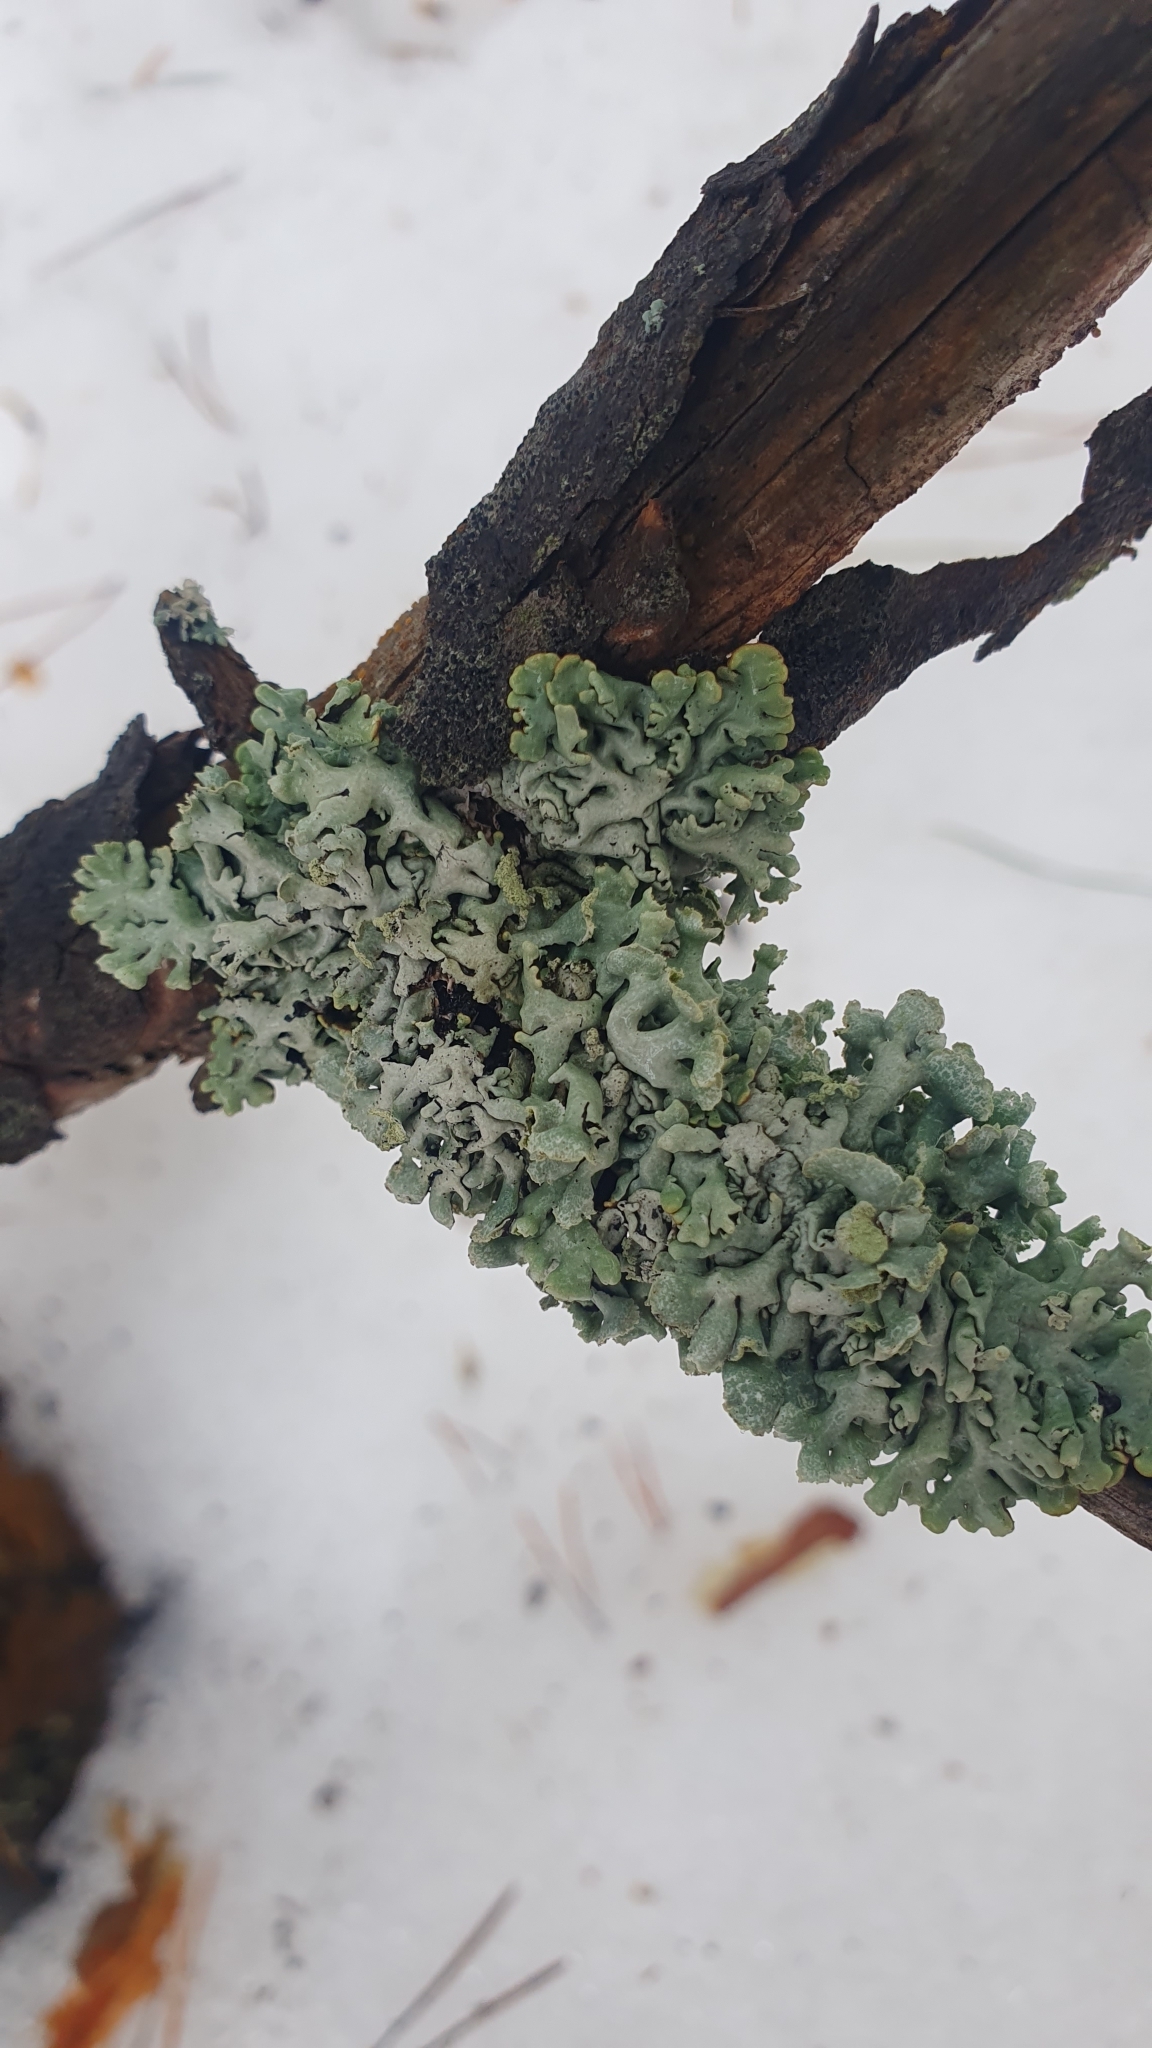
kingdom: Fungi
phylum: Ascomycota
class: Lecanoromycetes
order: Lecanorales
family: Parmeliaceae
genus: Hypogymnia
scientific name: Hypogymnia physodes
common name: Dark crottle
